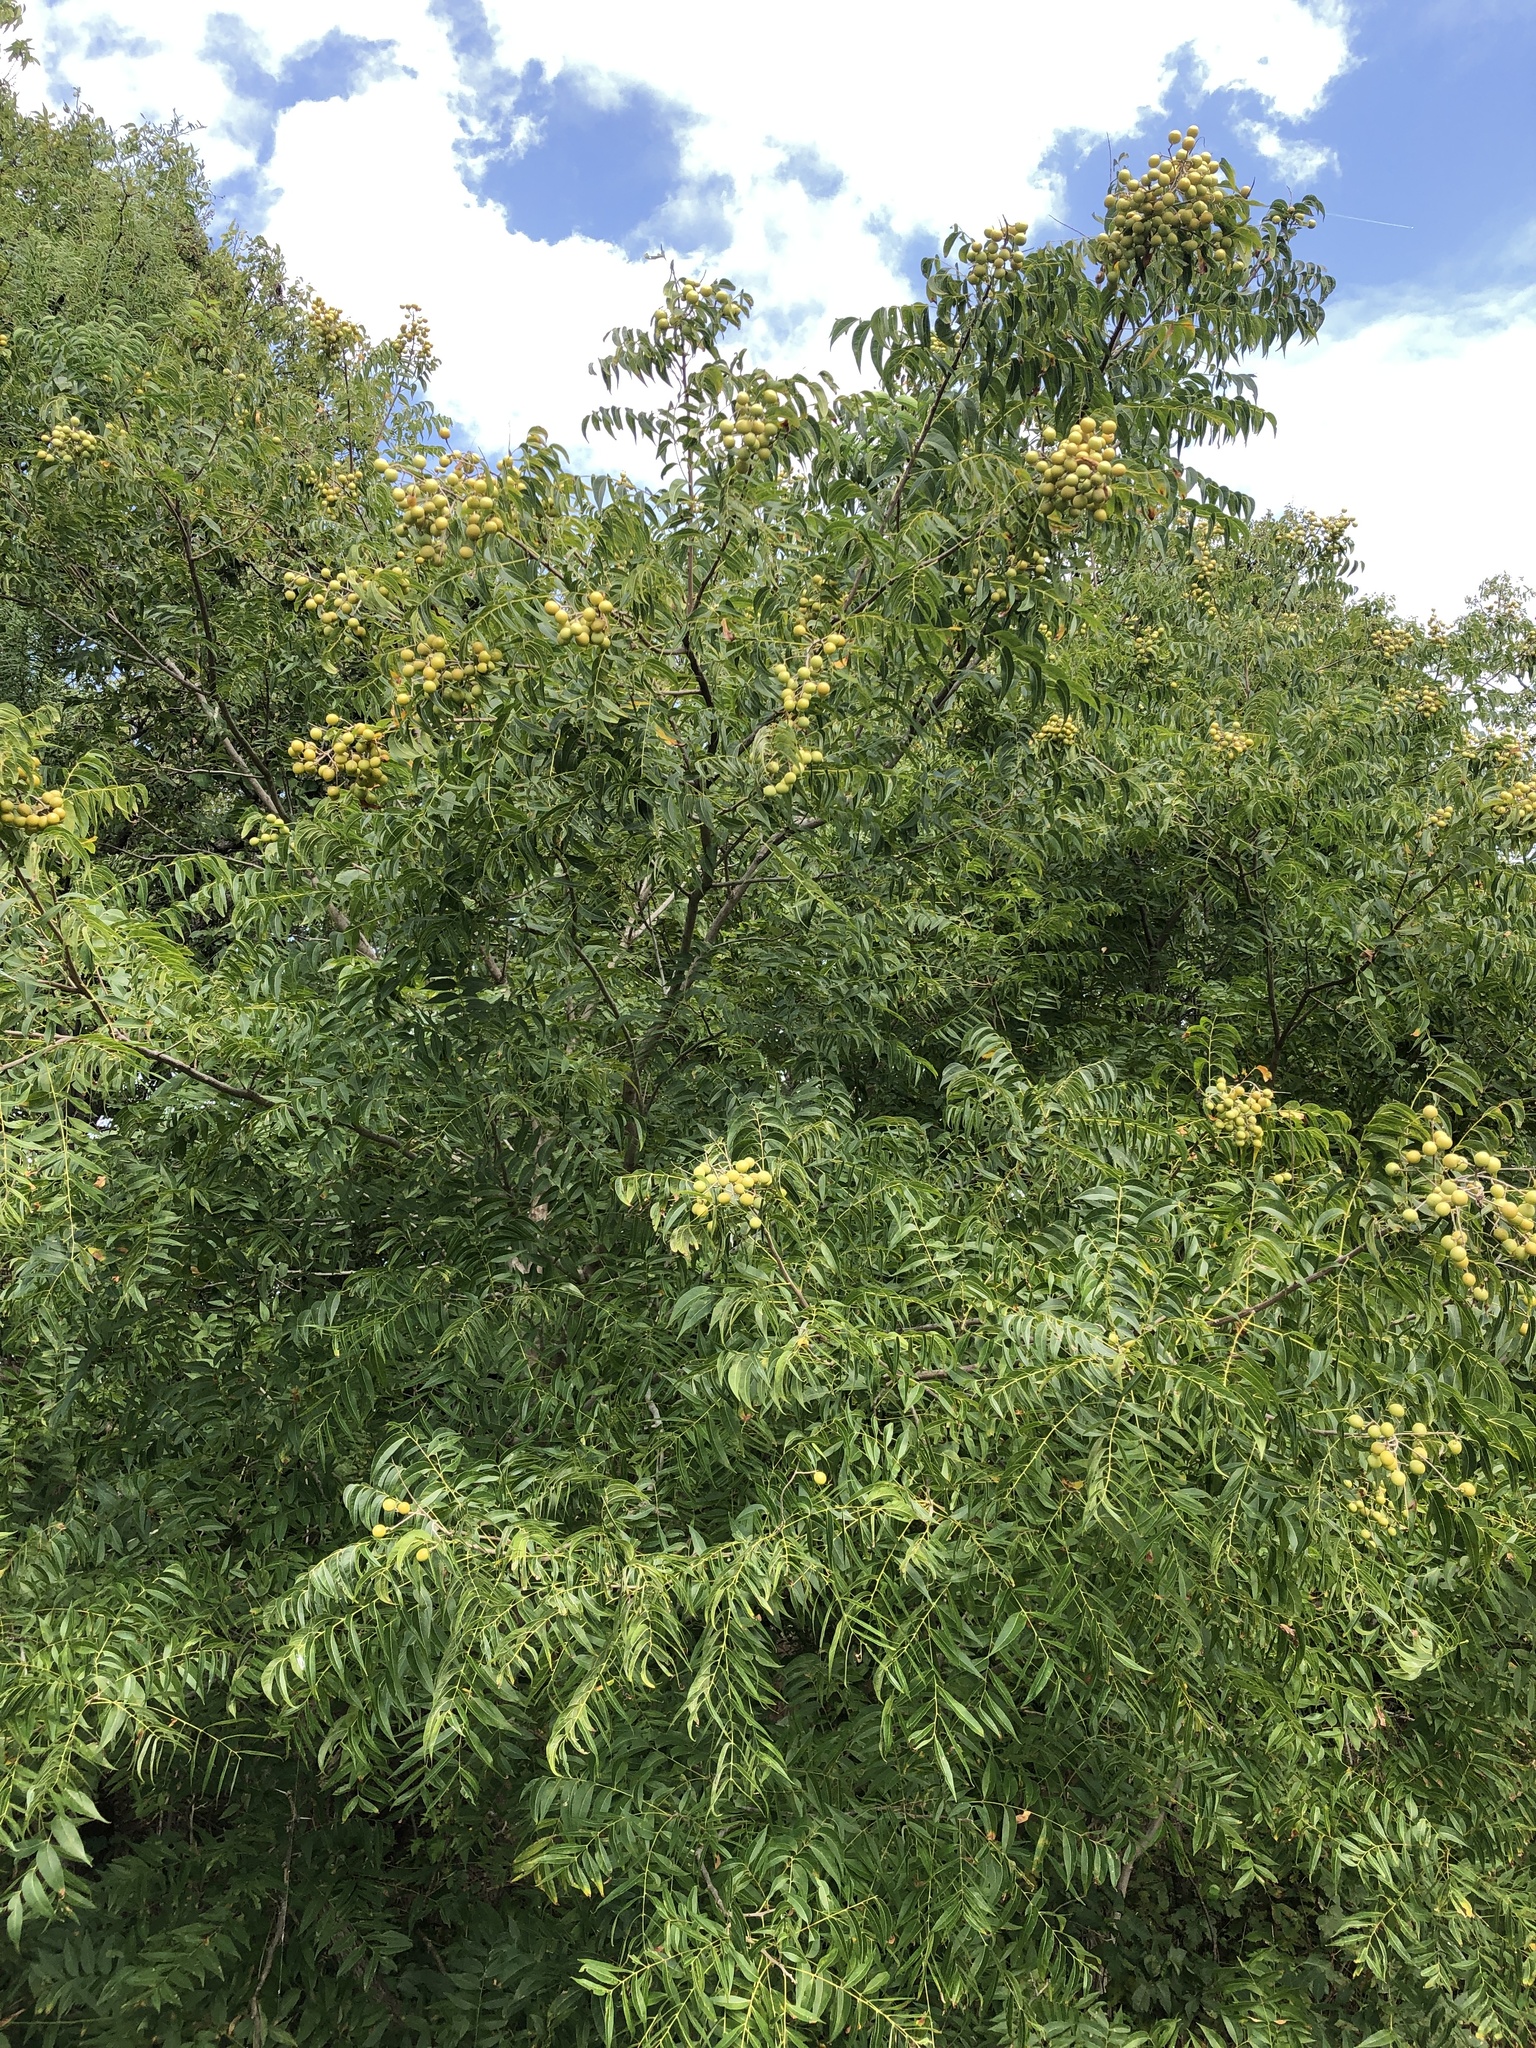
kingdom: Plantae
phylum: Tracheophyta
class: Magnoliopsida
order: Sapindales
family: Sapindaceae
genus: Sapindus
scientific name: Sapindus drummondii
